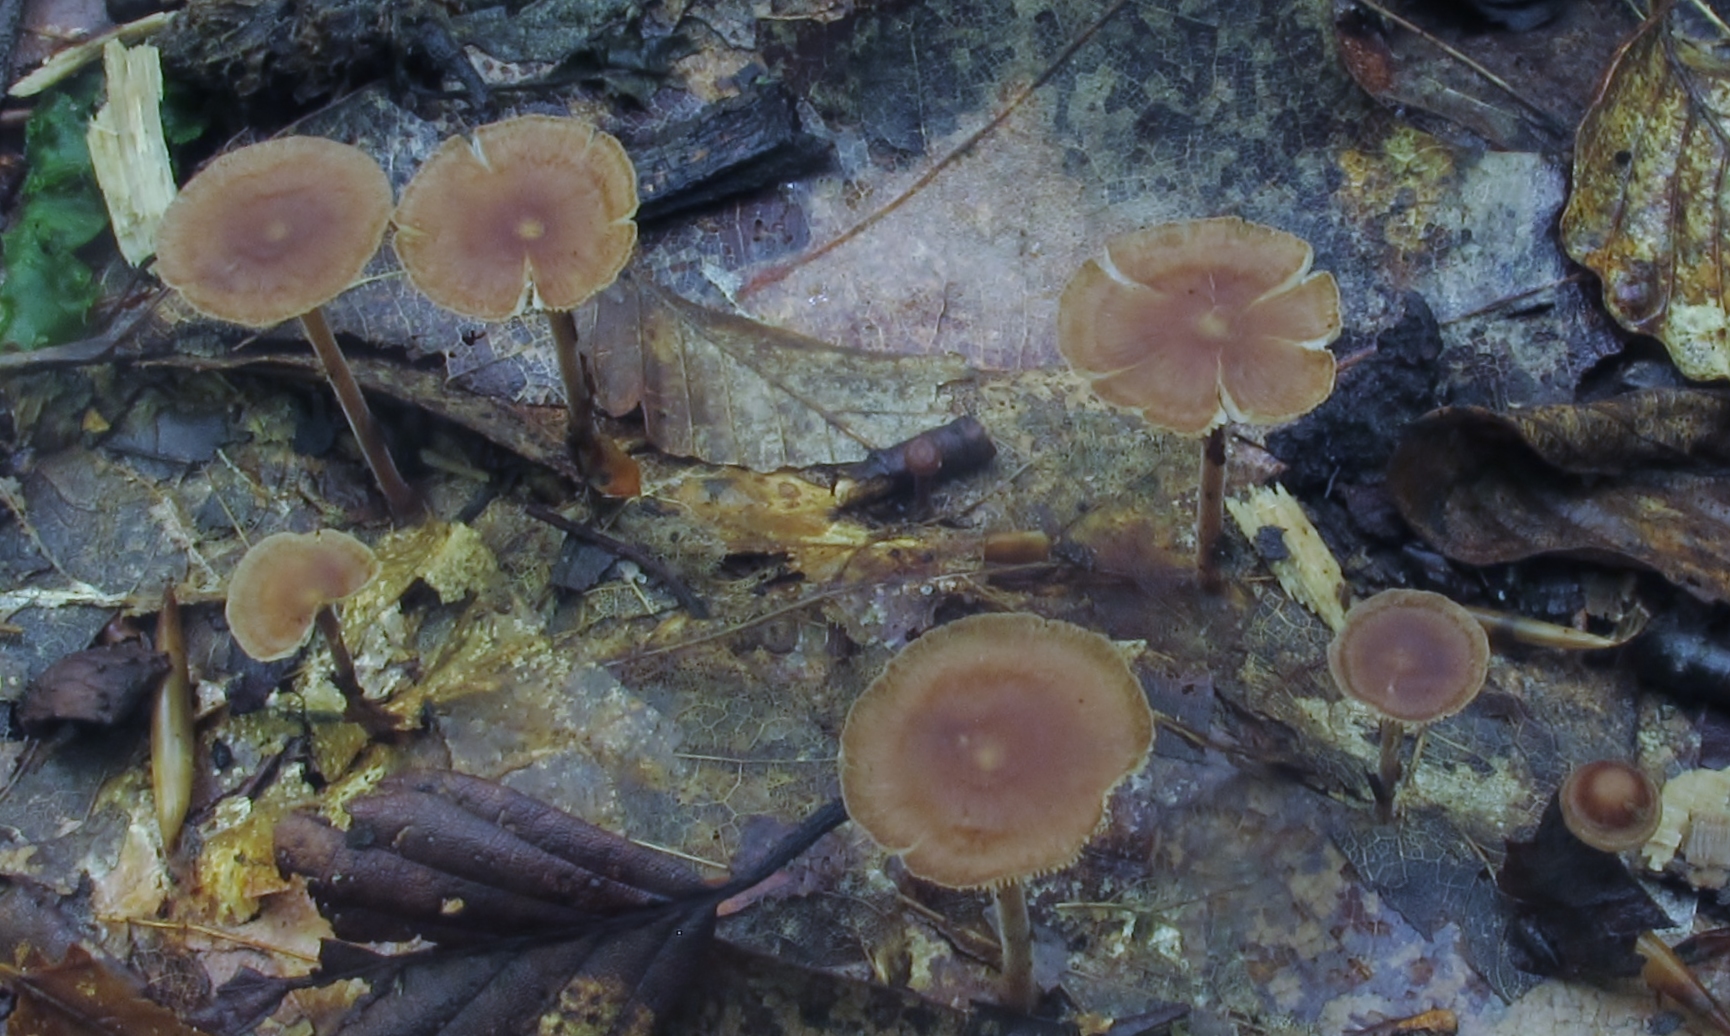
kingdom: Fungi
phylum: Basidiomycota
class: Agaricomycetes
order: Agaricales
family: Omphalotaceae
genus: Collybiopsis
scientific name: Collybiopsis subnuda
